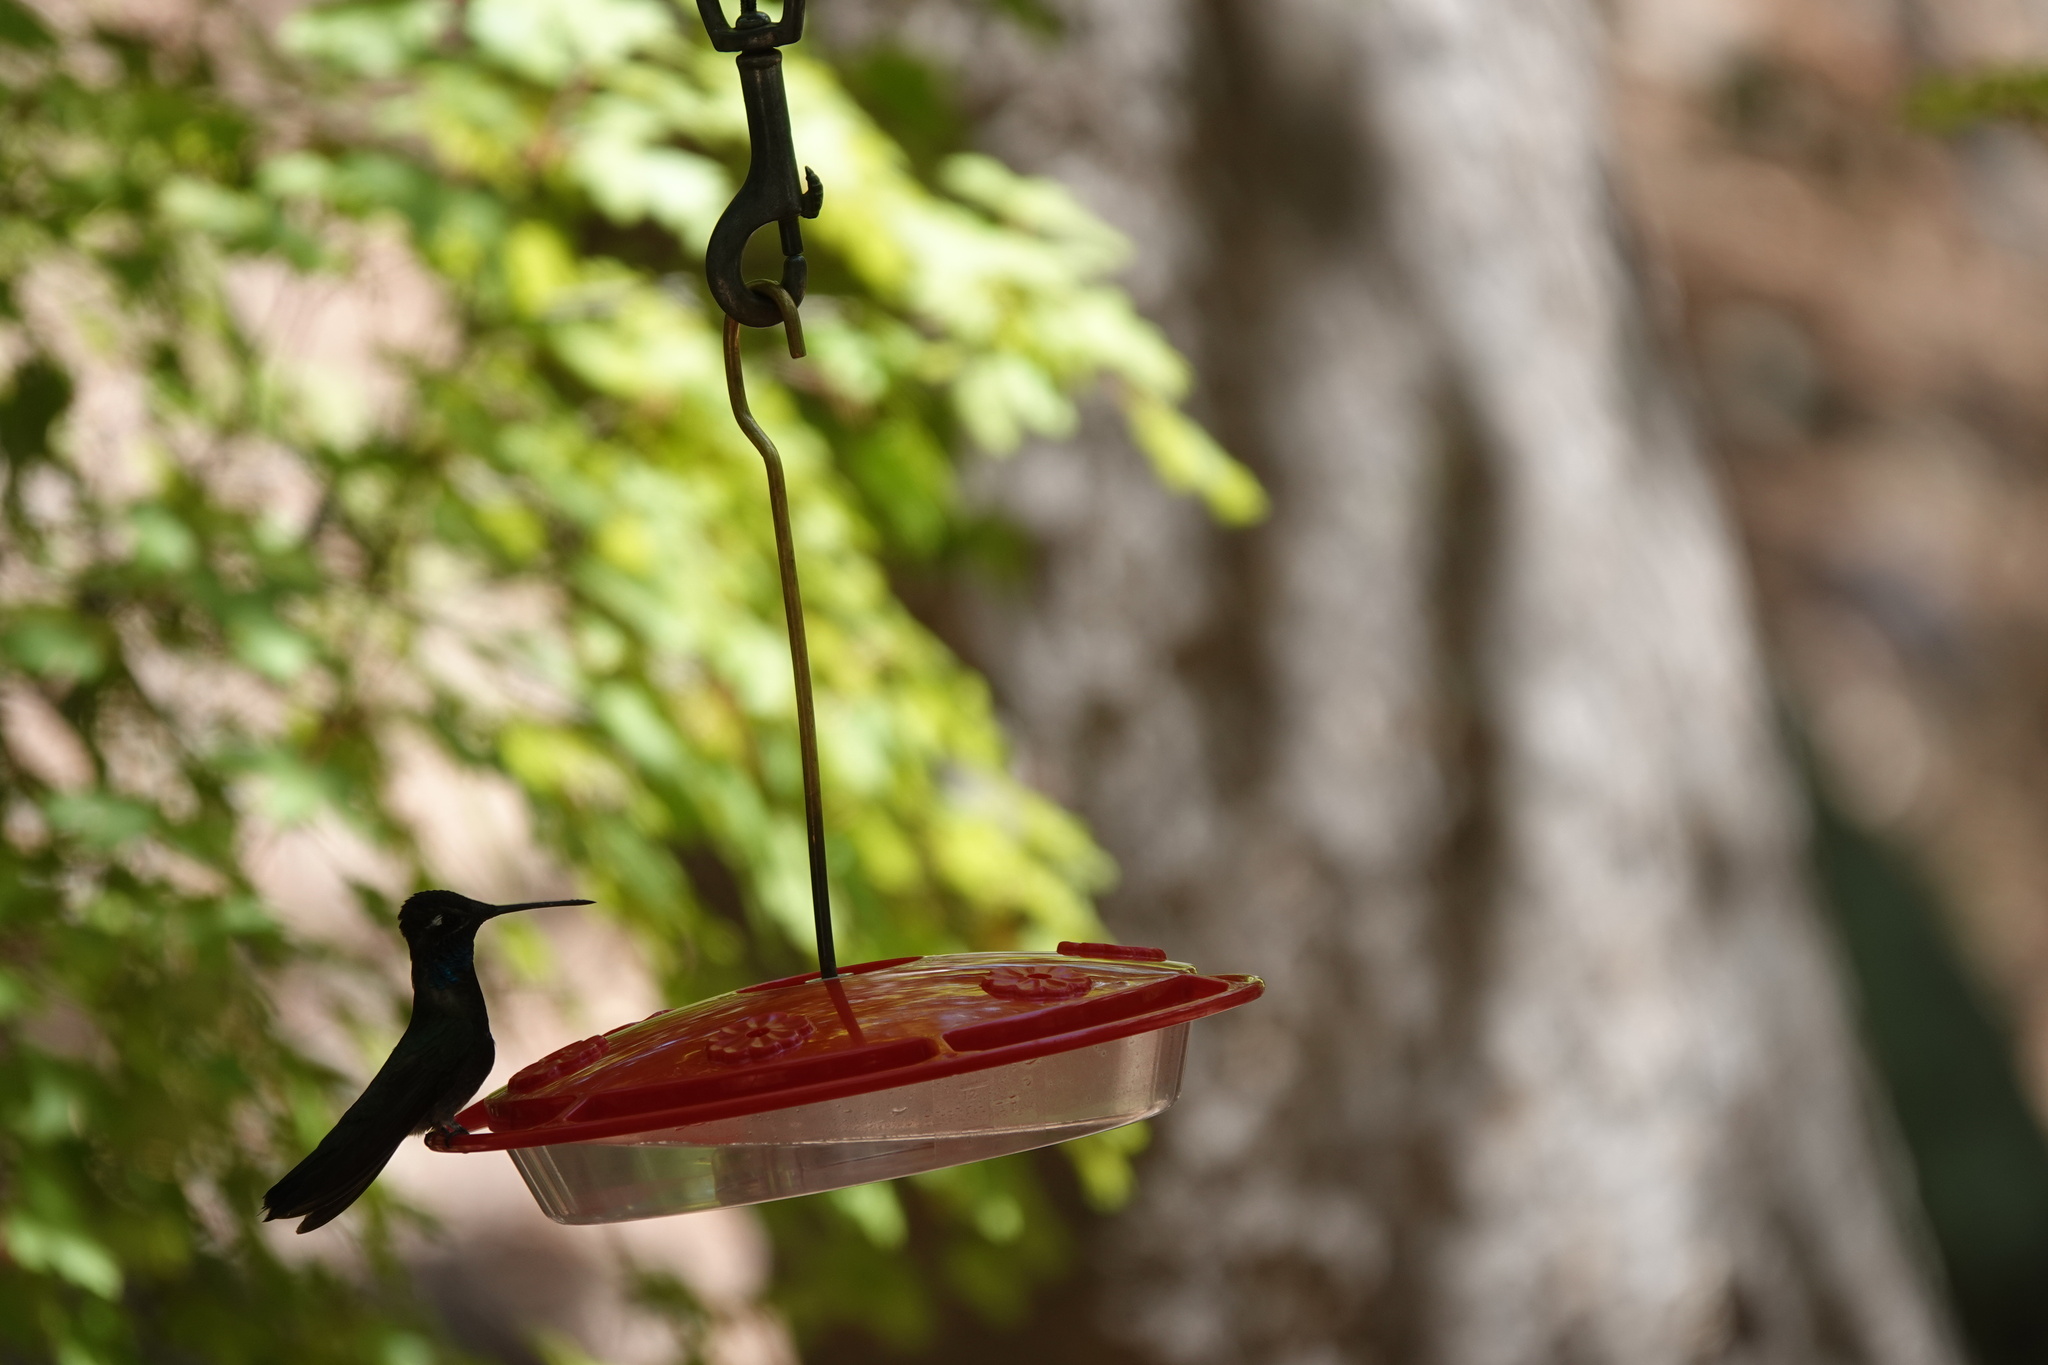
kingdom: Animalia
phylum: Chordata
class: Aves
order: Apodiformes
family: Trochilidae
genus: Eugenes
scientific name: Eugenes fulgens
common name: Magnificent hummingbird
